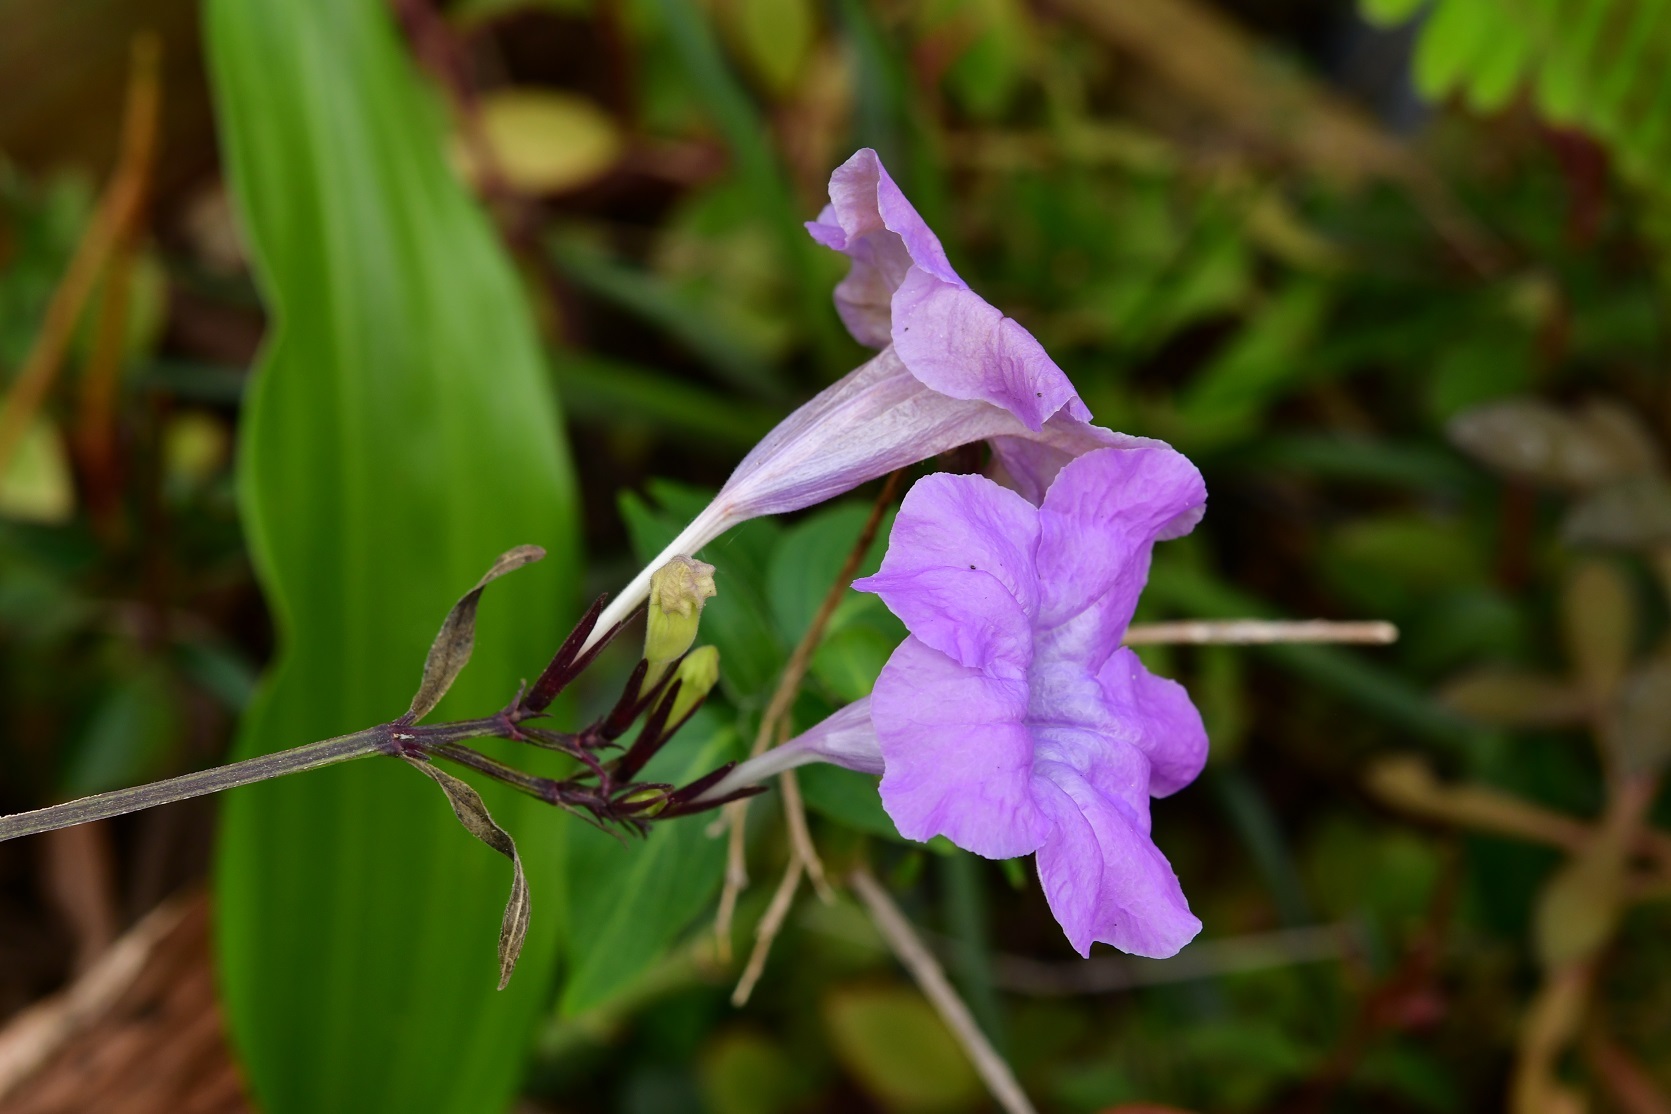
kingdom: Plantae
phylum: Tracheophyta
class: Magnoliopsida
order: Lamiales
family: Acanthaceae
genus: Ruellia
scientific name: Ruellia breedlovei
